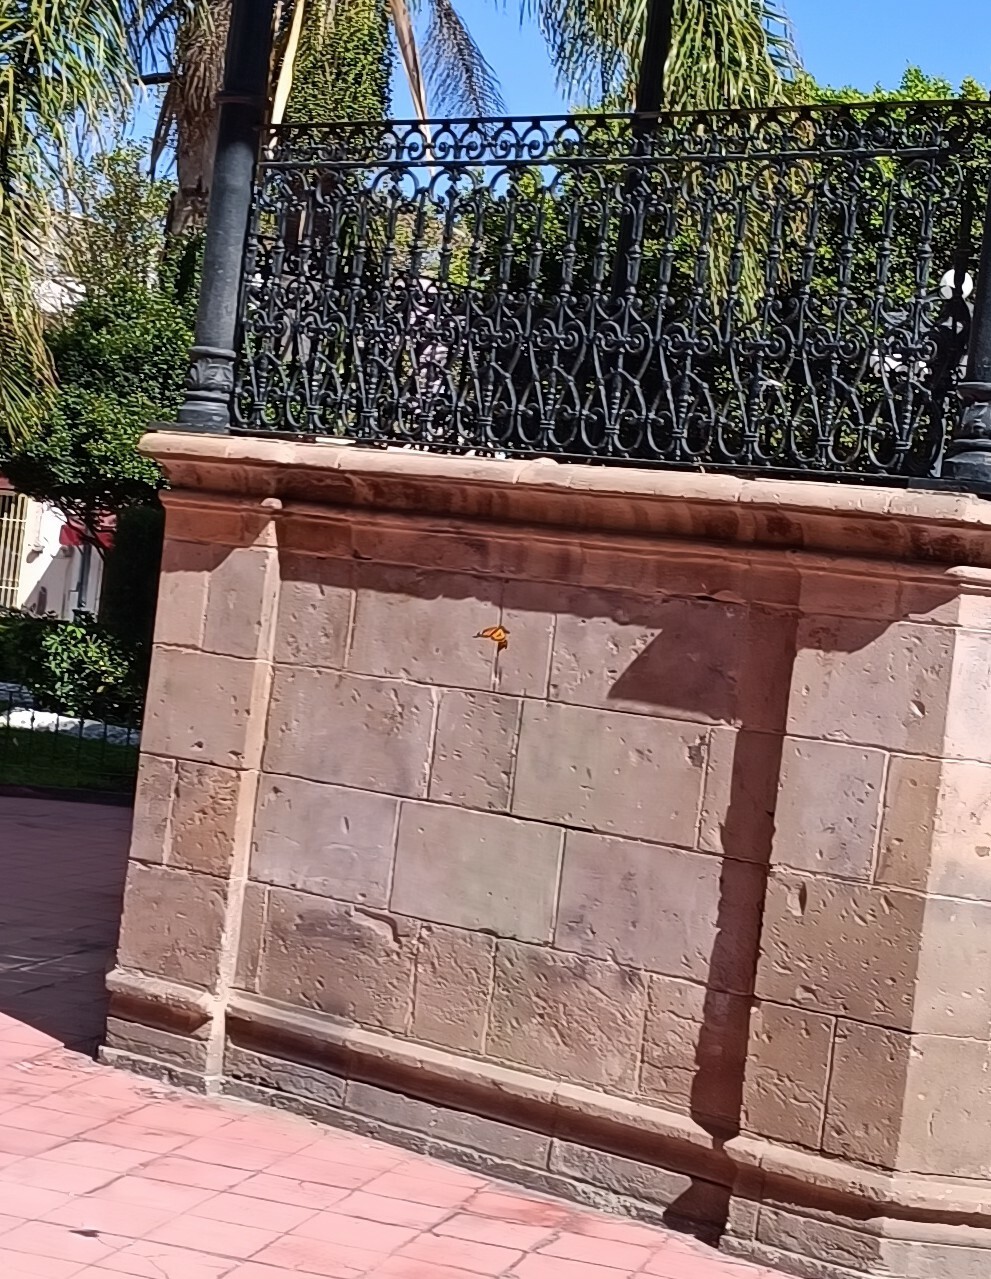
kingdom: Animalia
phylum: Arthropoda
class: Insecta
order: Lepidoptera
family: Nymphalidae
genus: Danaus
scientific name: Danaus plexippus
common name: Monarch
